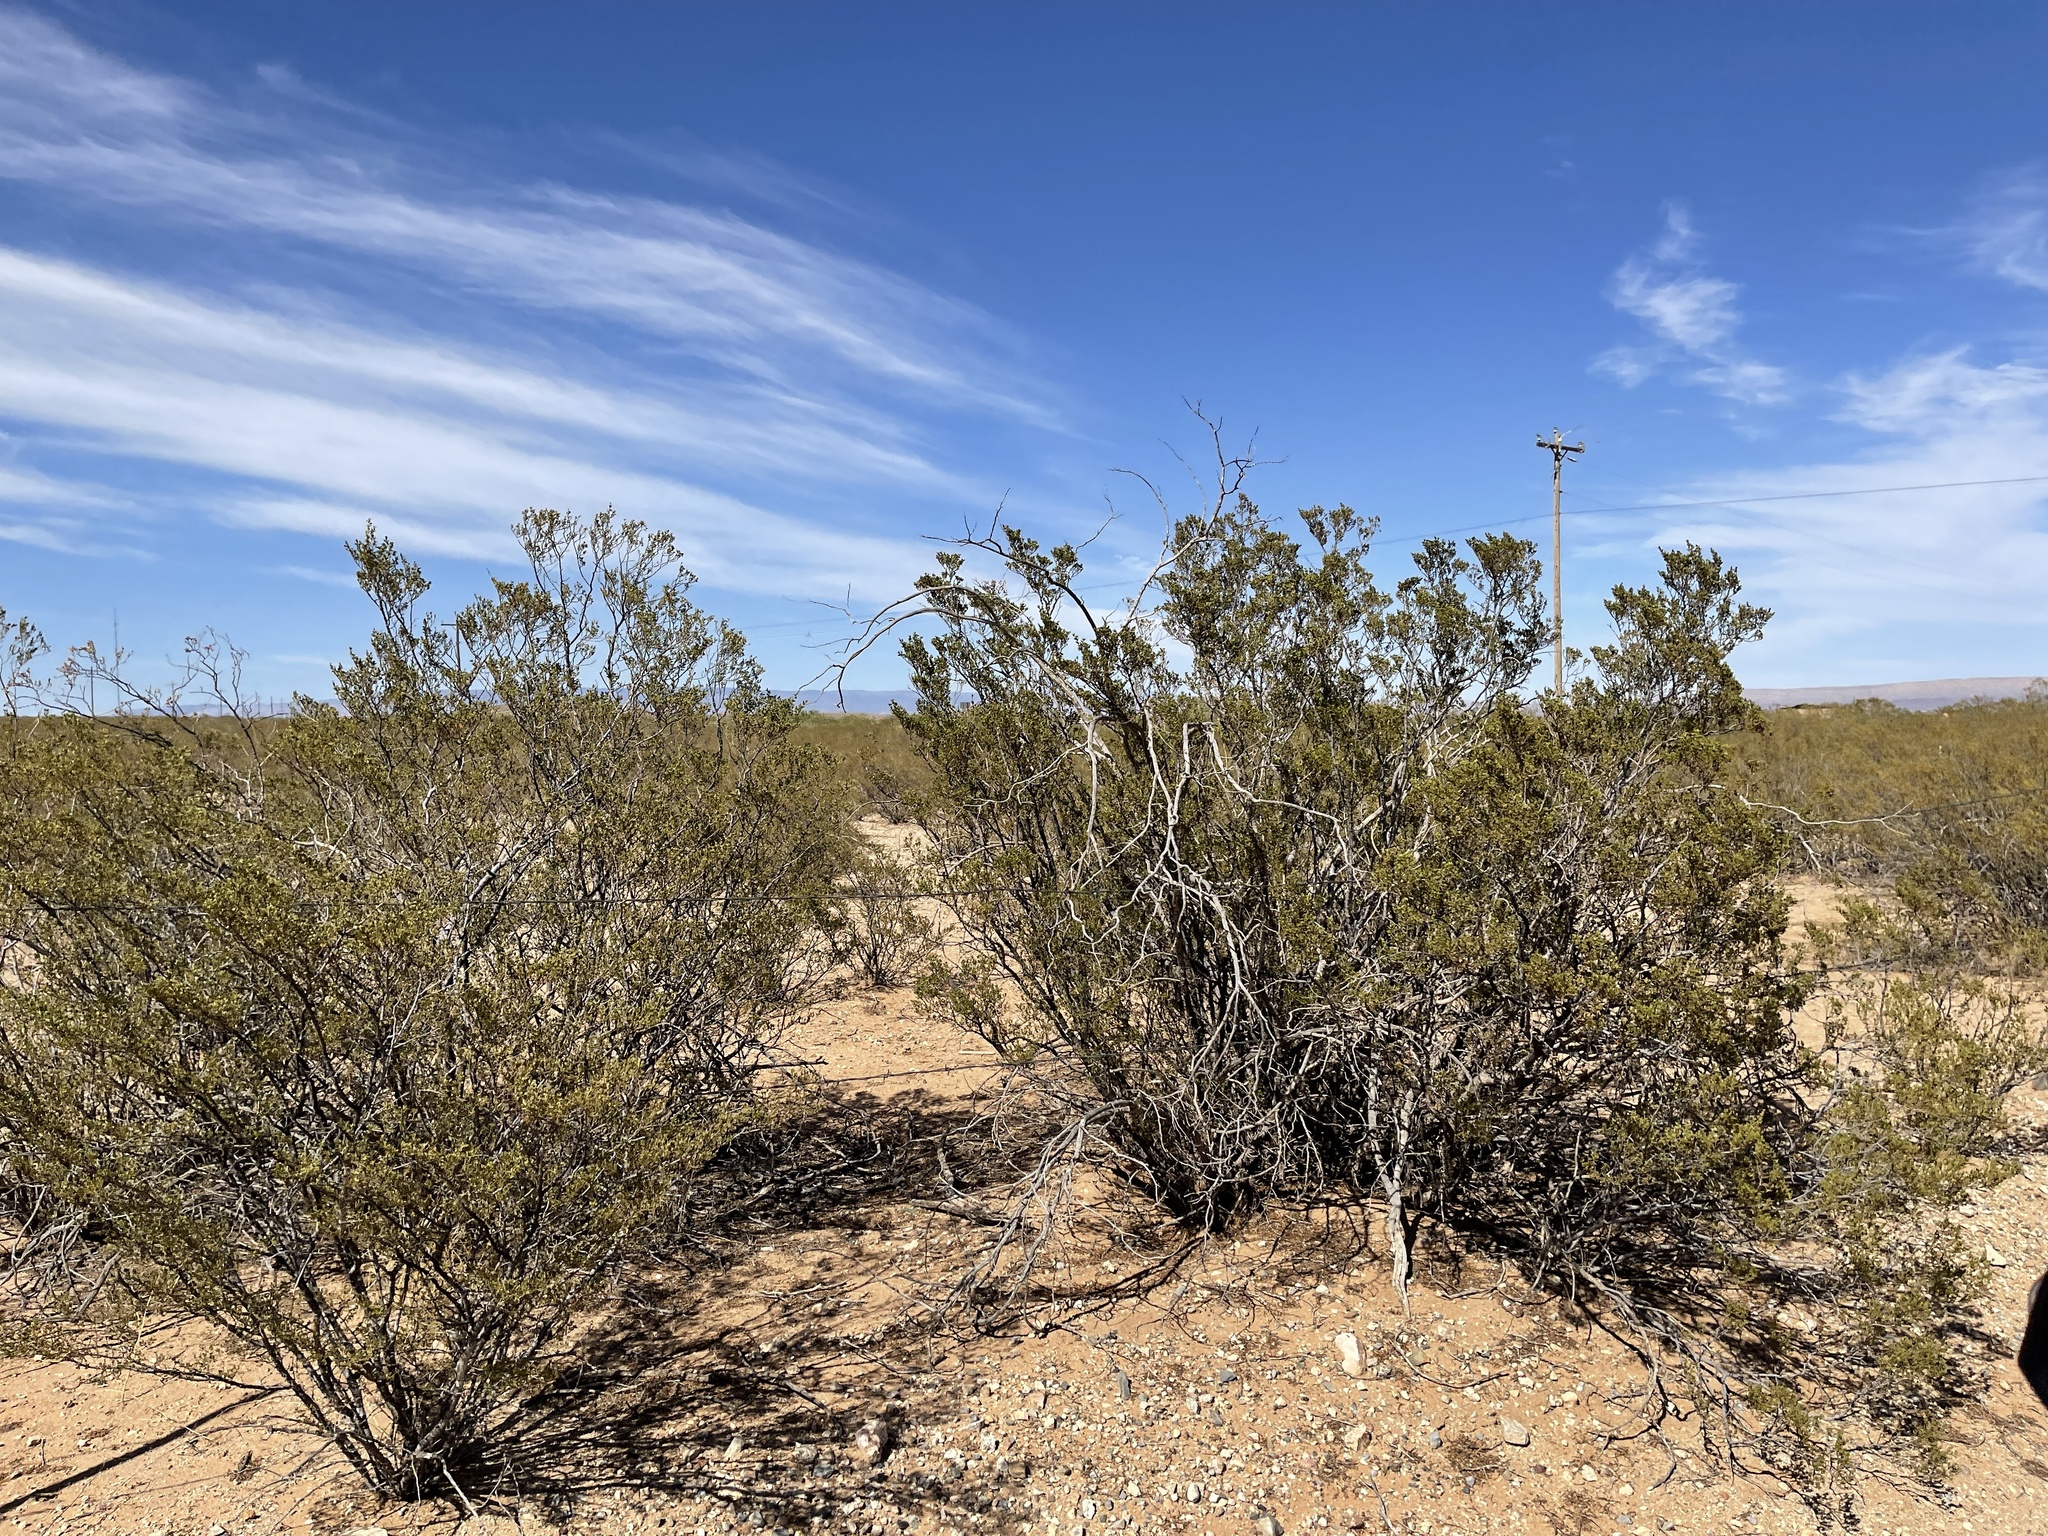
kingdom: Plantae
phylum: Tracheophyta
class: Magnoliopsida
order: Zygophyllales
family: Zygophyllaceae
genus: Larrea
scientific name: Larrea tridentata
